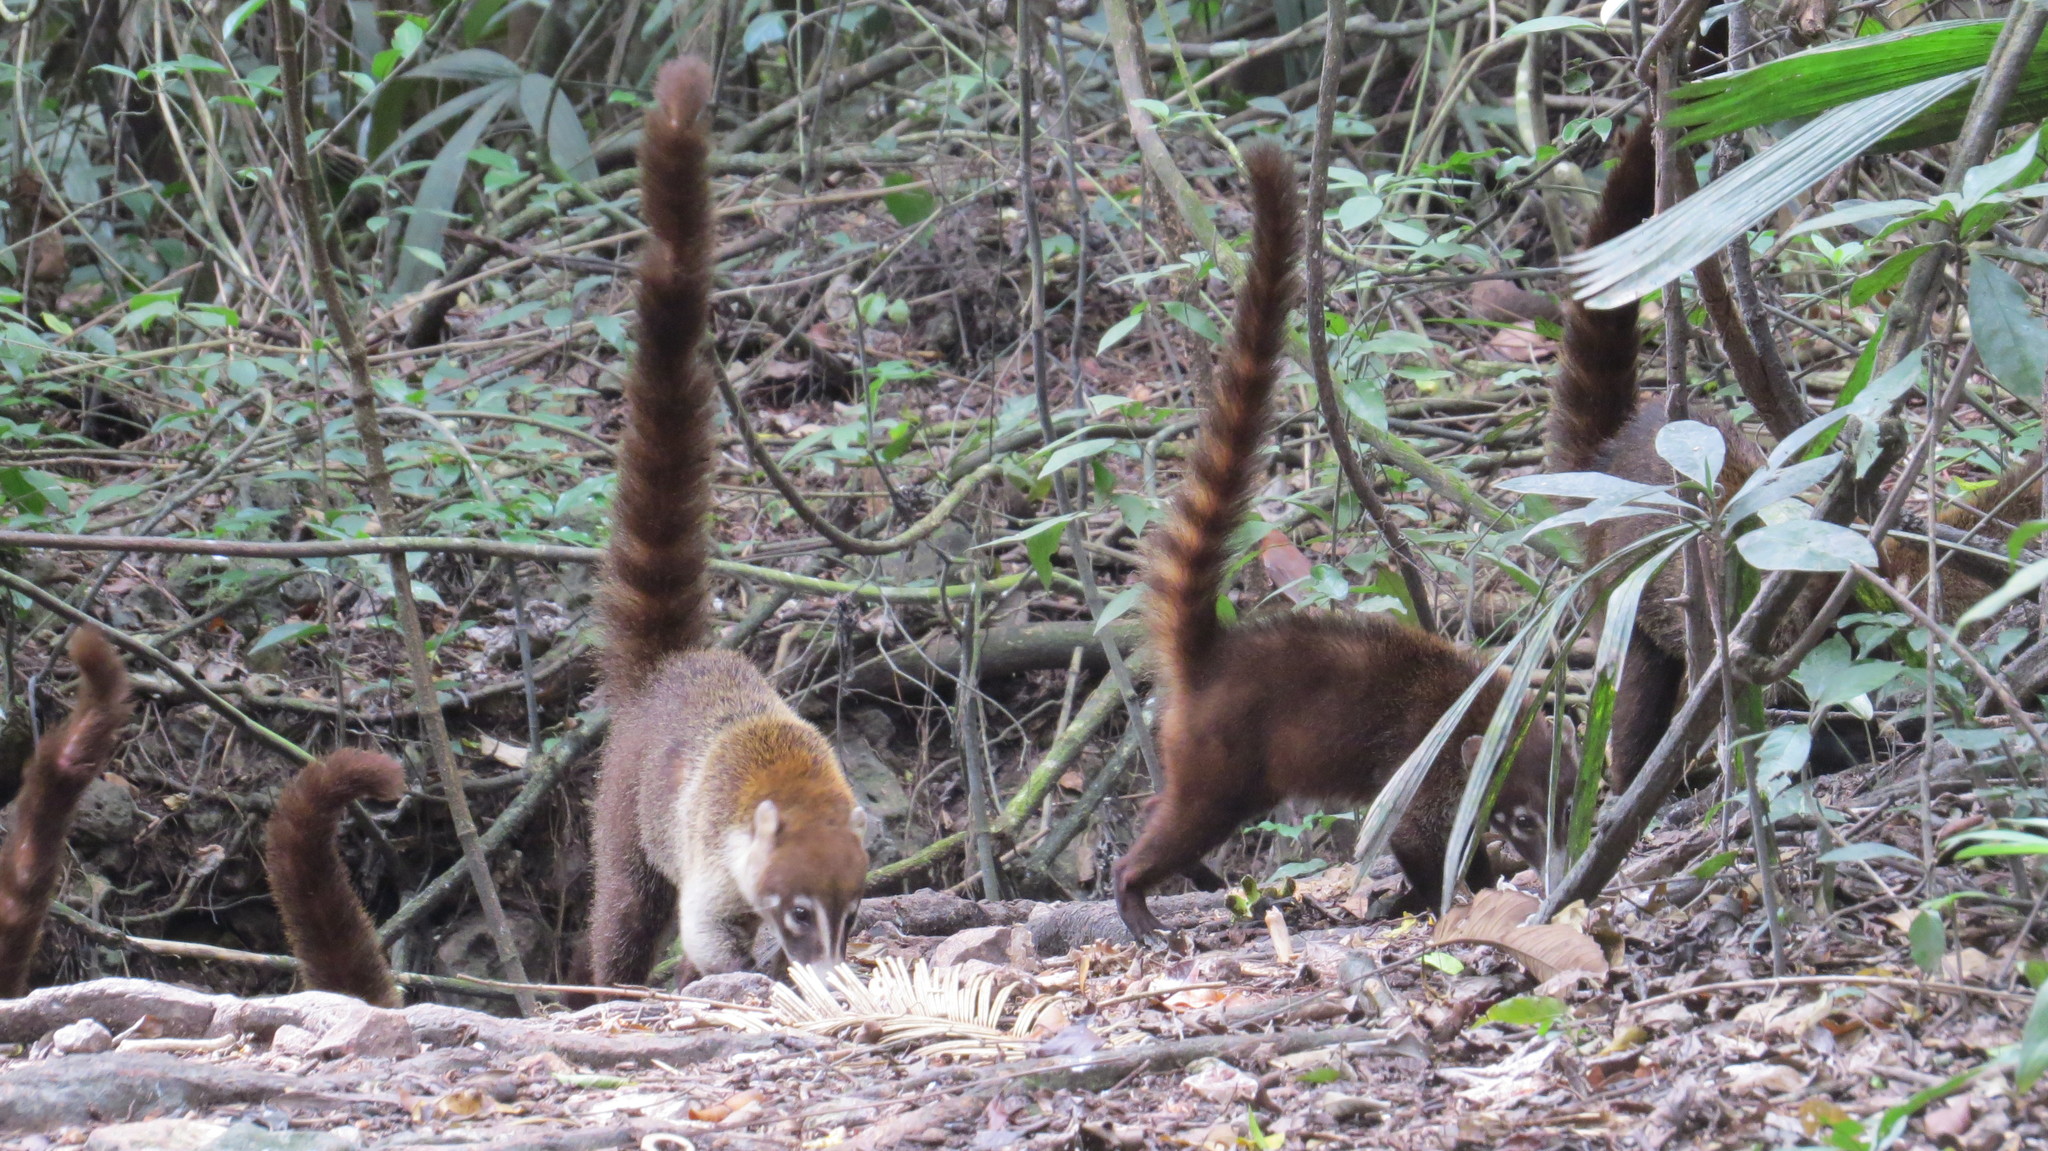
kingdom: Animalia
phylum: Chordata
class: Mammalia
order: Carnivora
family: Procyonidae
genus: Nasua
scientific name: Nasua narica
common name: White-nosed coati
